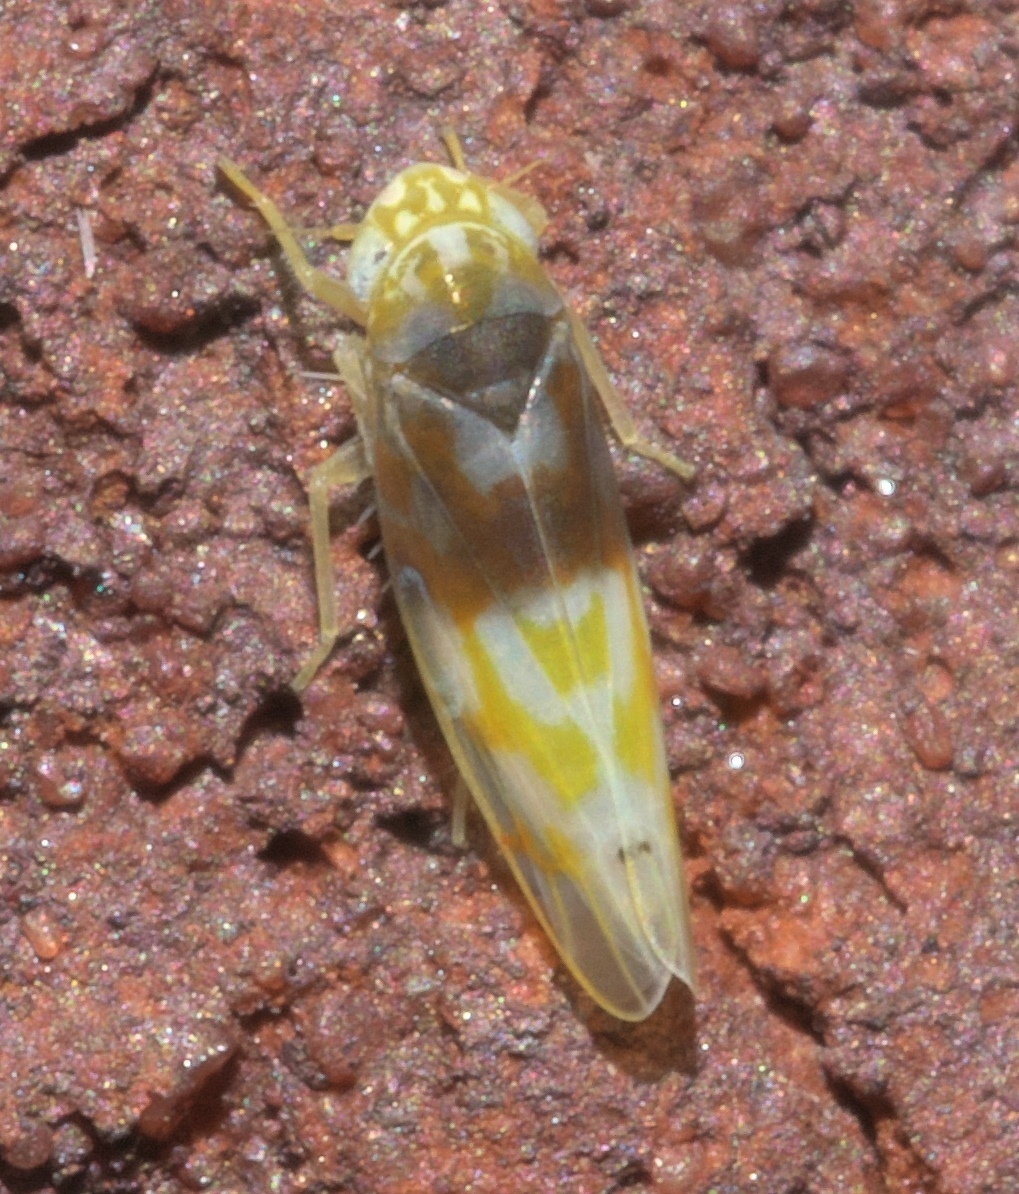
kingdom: Animalia
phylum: Arthropoda
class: Insecta
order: Hemiptera
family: Cicadellidae
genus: Eratoneura
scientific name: Eratoneura affinis
